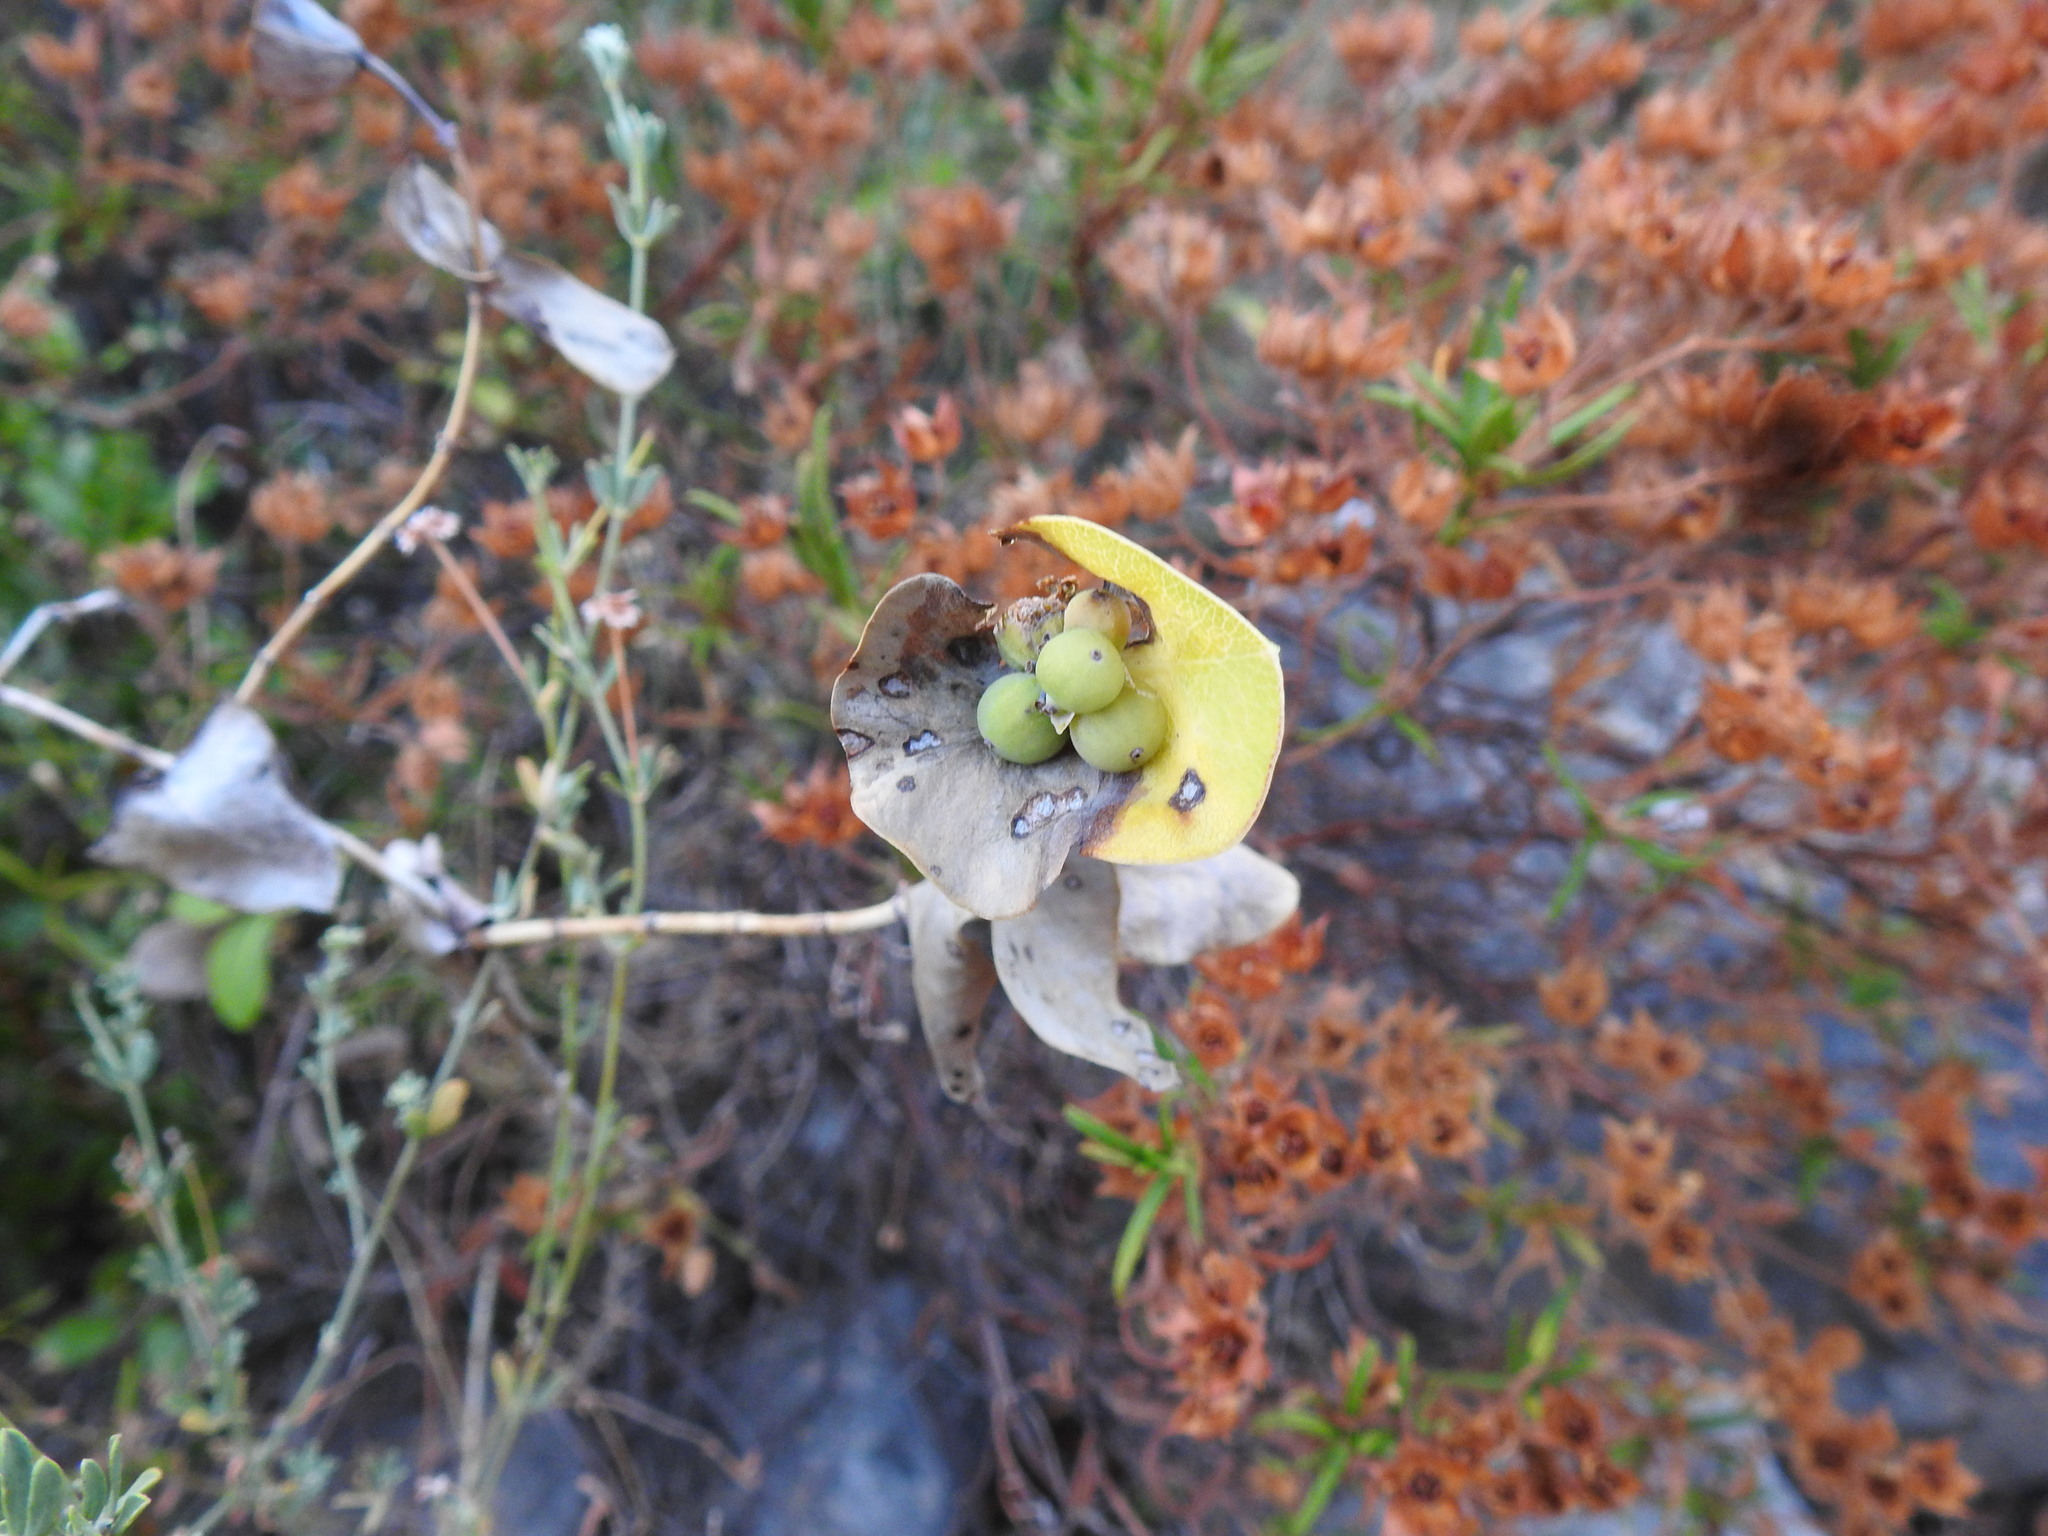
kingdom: Plantae
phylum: Tracheophyta
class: Magnoliopsida
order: Dipsacales
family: Caprifoliaceae
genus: Lonicera
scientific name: Lonicera implexa
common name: Minorca honeysuckle
